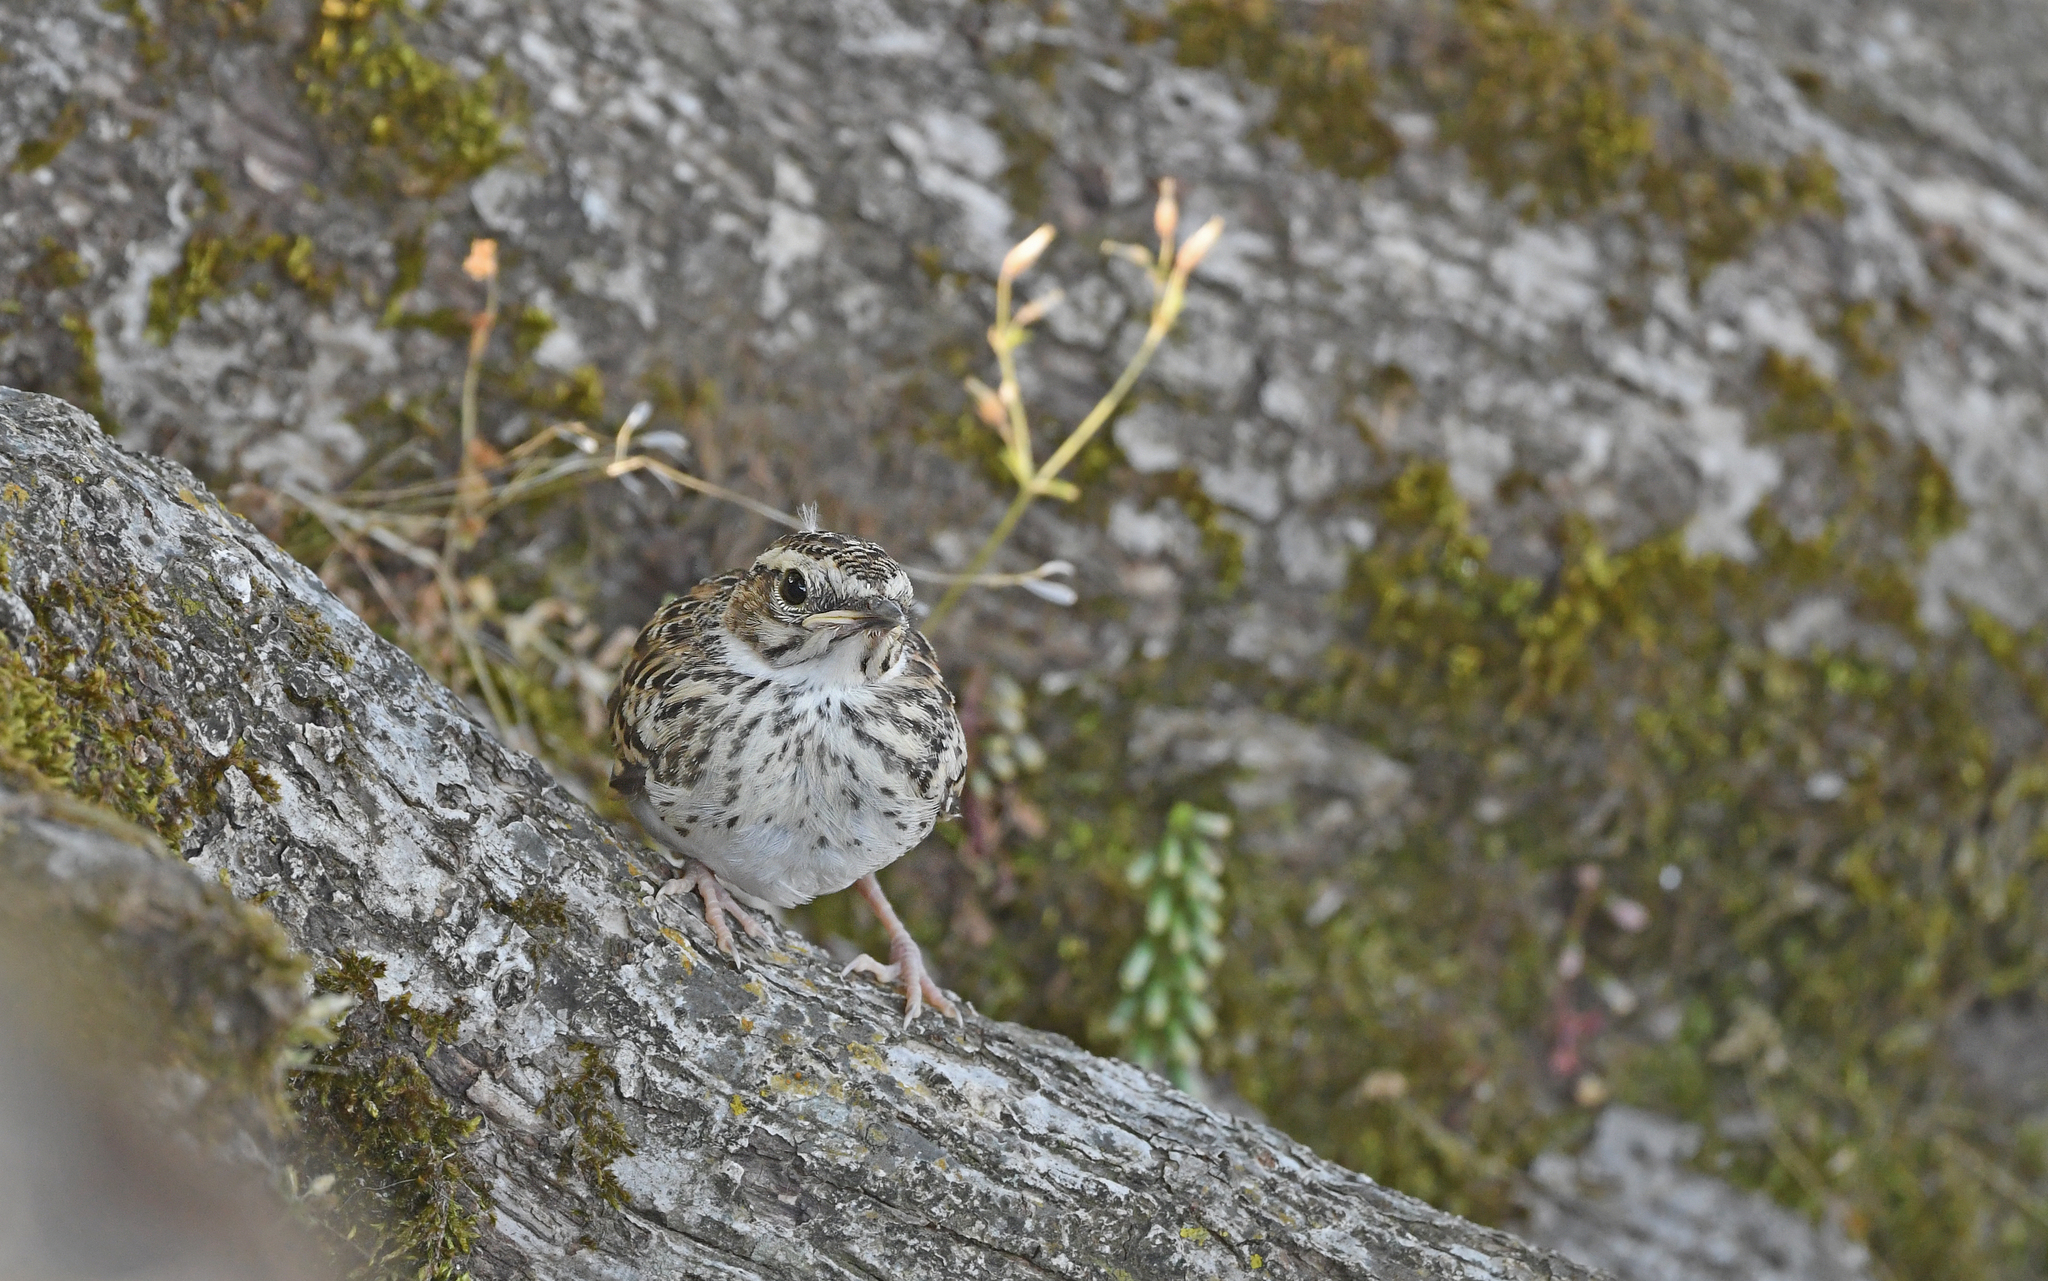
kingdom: Animalia
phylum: Chordata
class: Aves
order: Passeriformes
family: Alaudidae
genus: Lullula
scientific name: Lullula arborea
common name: Woodlark
